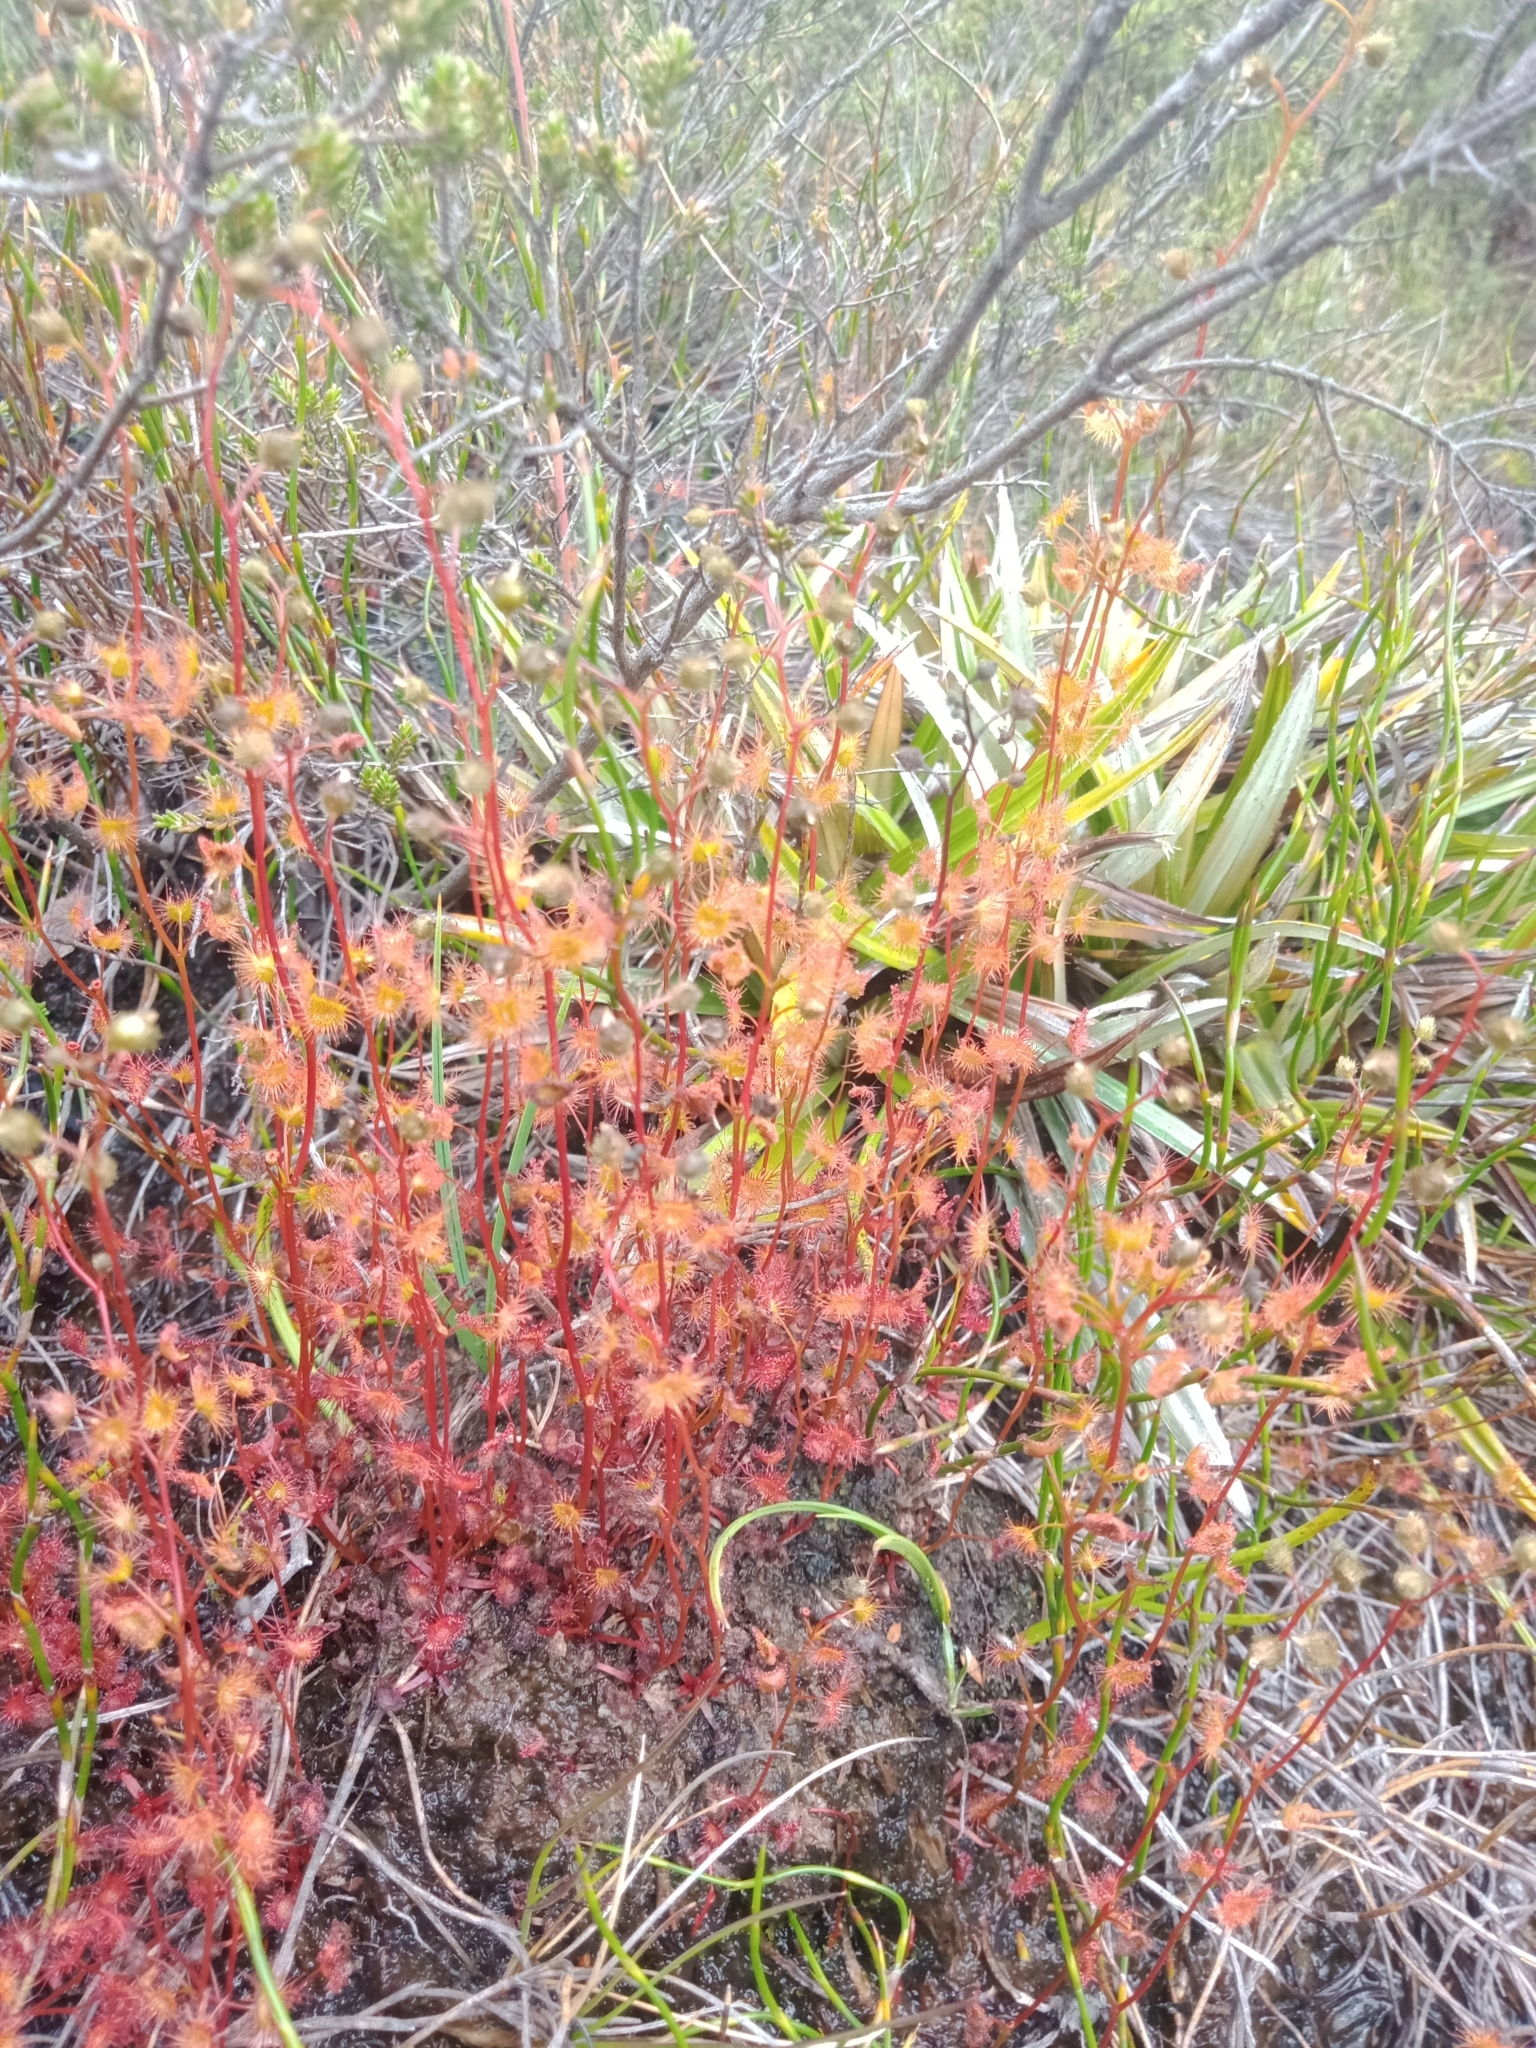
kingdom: Plantae
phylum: Tracheophyta
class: Magnoliopsida
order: Caryophyllales
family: Droseraceae
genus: Drosera
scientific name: Drosera peltata
